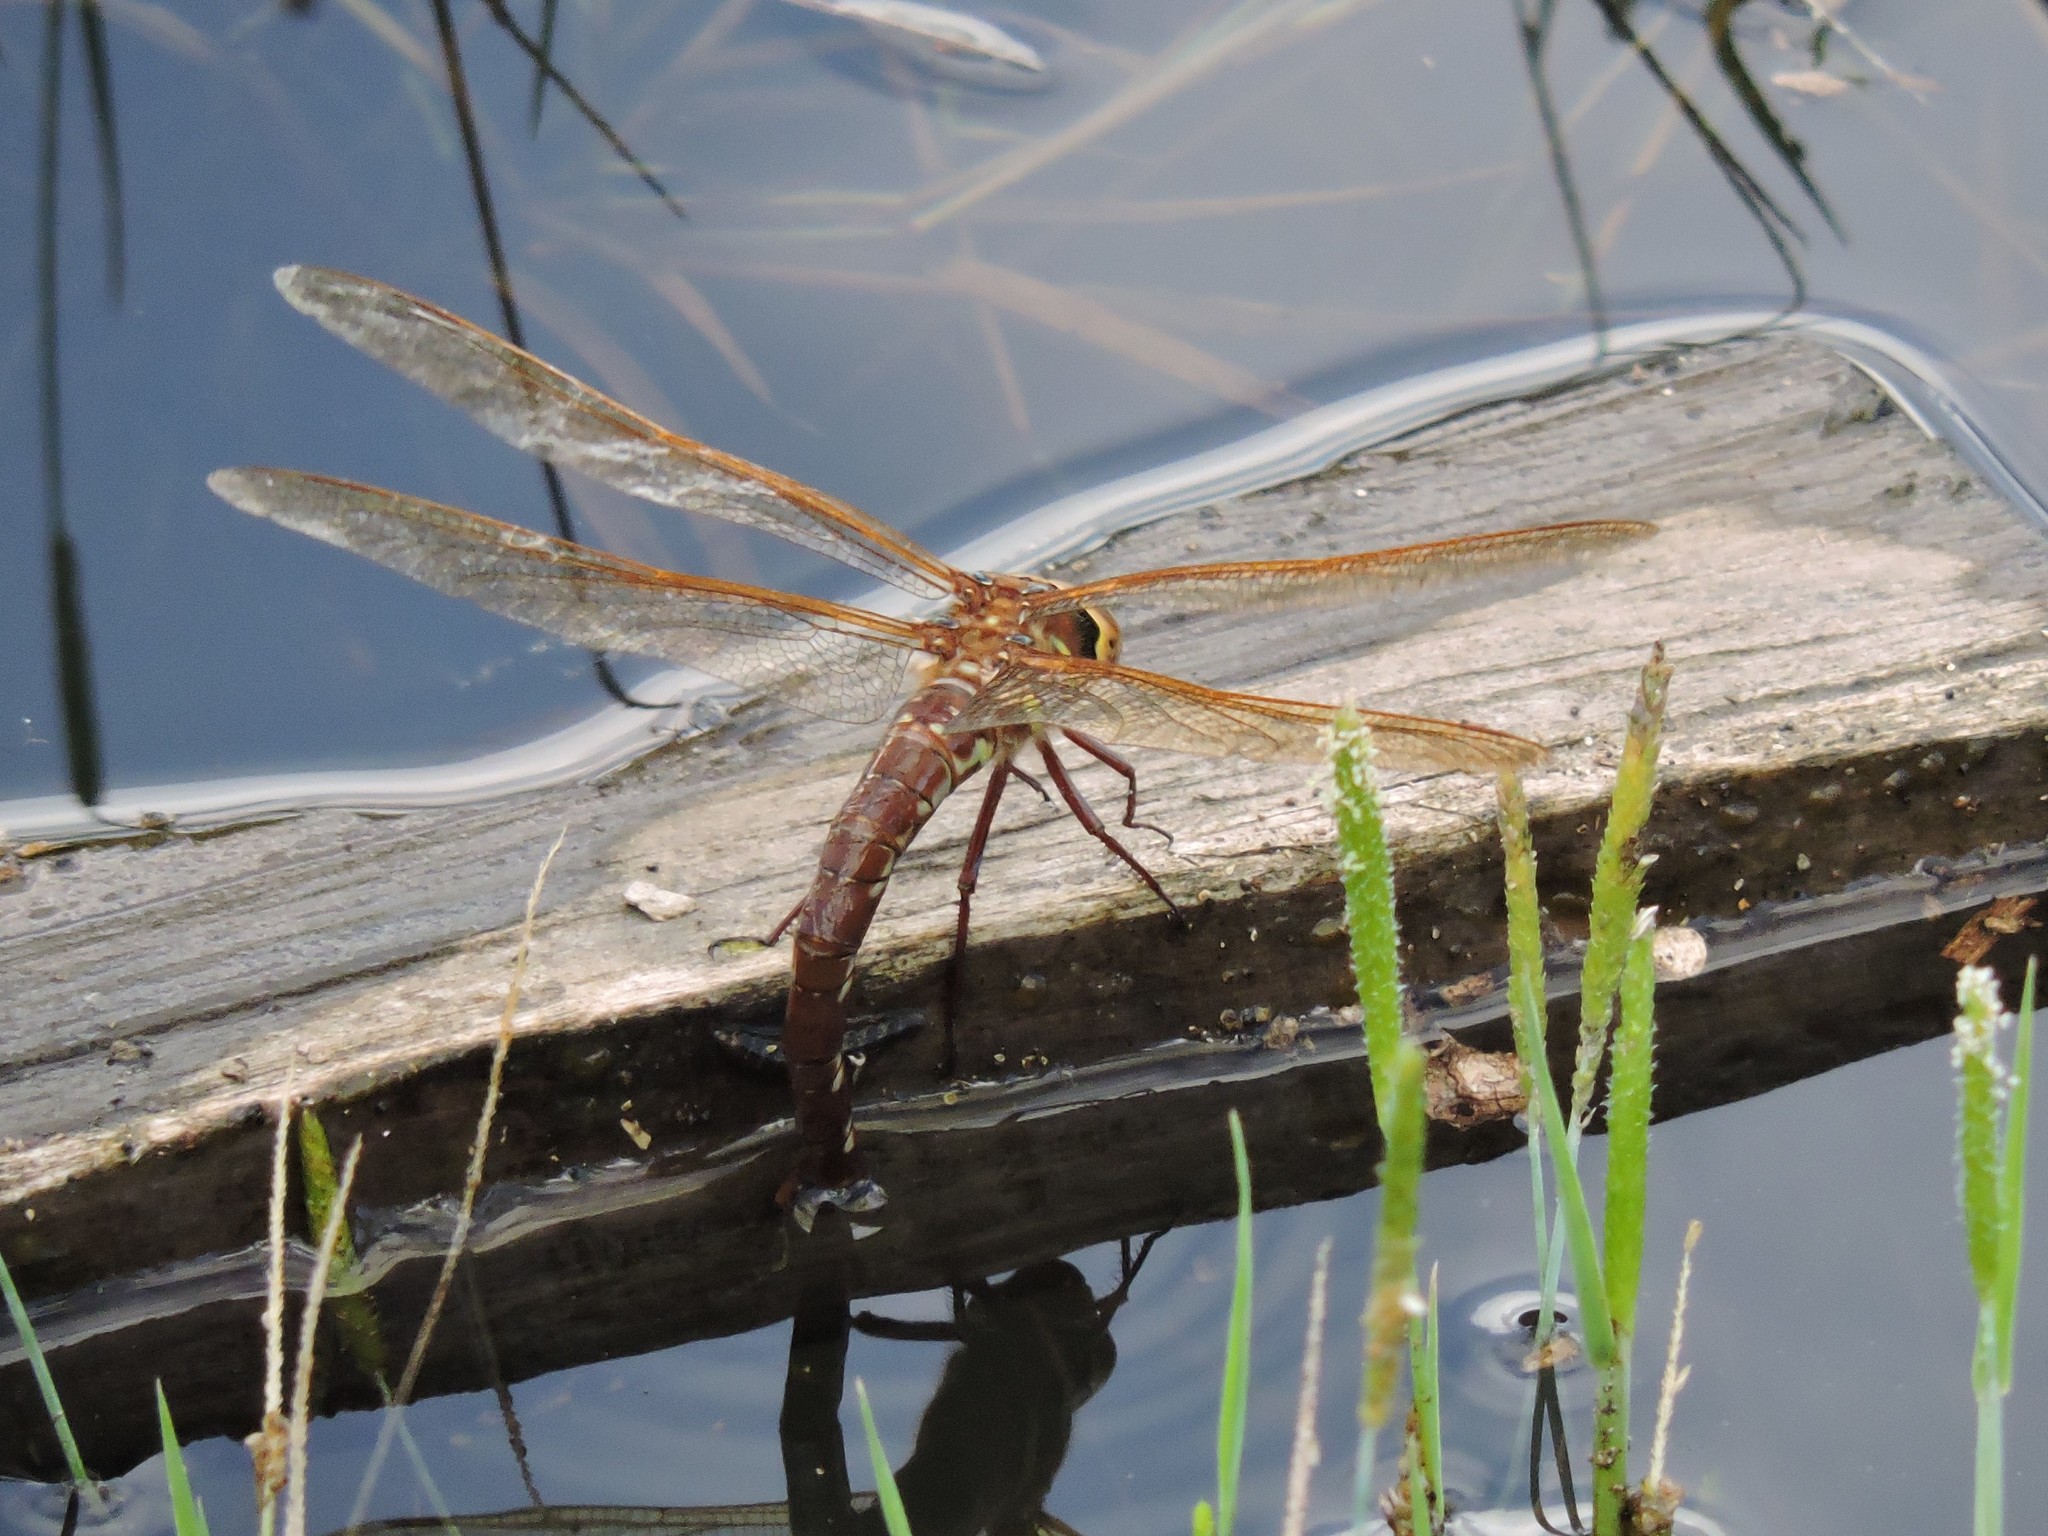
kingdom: Animalia
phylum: Arthropoda
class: Insecta
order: Odonata
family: Aeshnidae
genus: Aeshna
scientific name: Aeshna grandis
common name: Brown hawker
